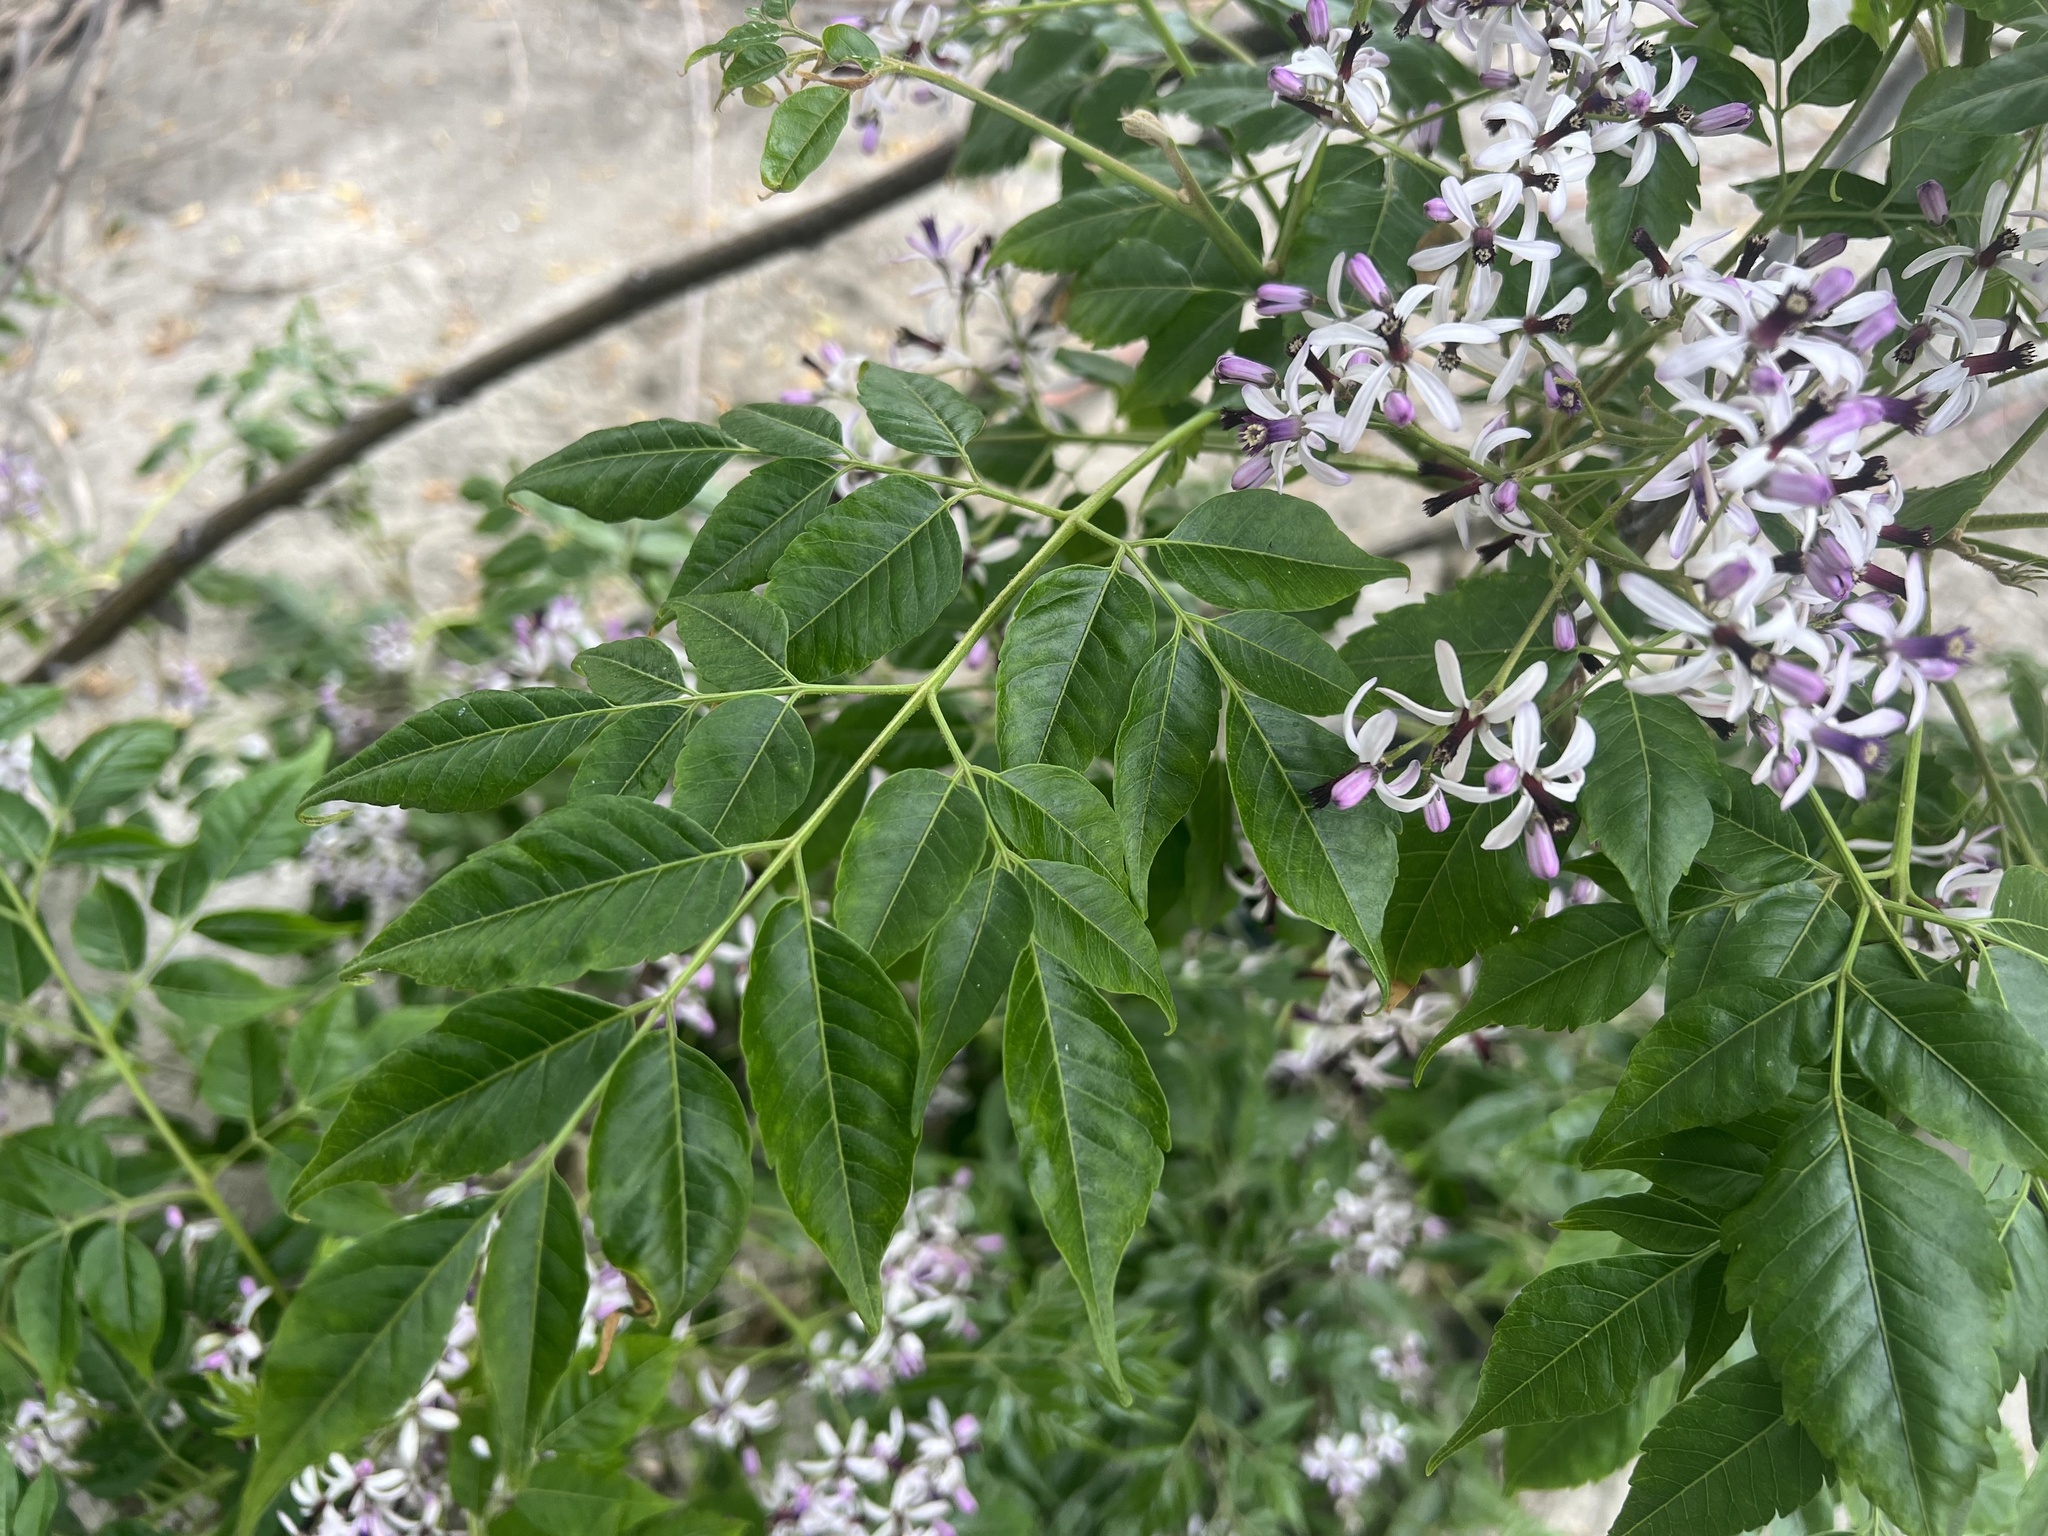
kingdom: Plantae
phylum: Tracheophyta
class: Magnoliopsida
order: Sapindales
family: Meliaceae
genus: Melia
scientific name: Melia azedarach
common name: Chinaberrytree
